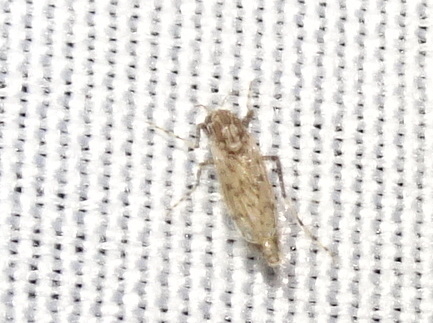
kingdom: Animalia
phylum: Arthropoda
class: Insecta
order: Diptera
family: Chaoboridae
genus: Chaoborus
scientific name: Chaoborus punctipennis
